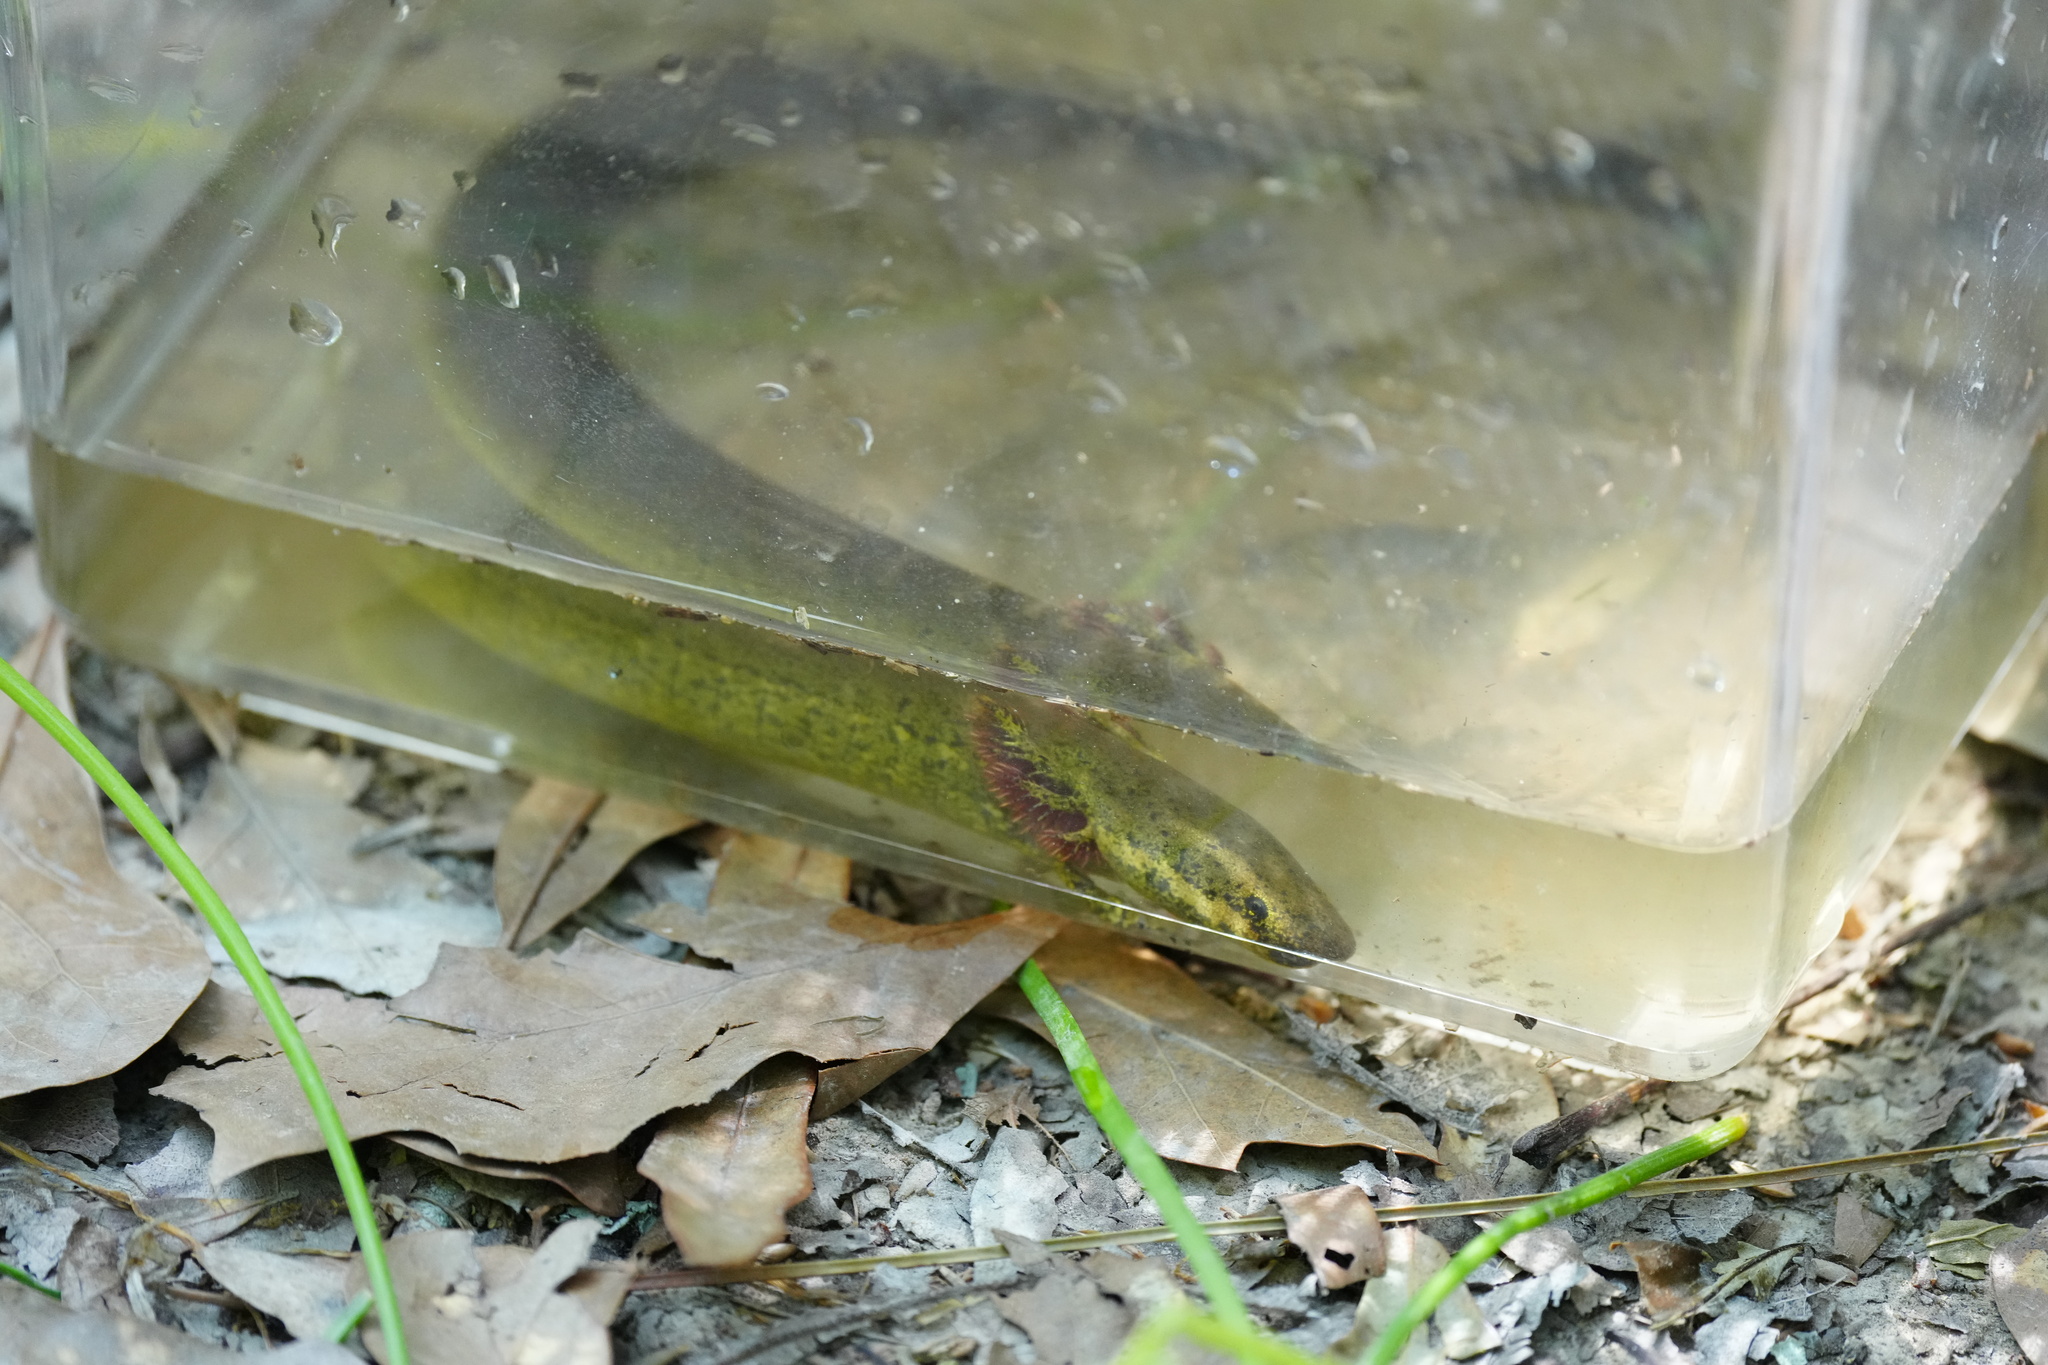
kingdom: Animalia
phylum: Chordata
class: Amphibia
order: Caudata
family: Sirenidae
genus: Siren
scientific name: Siren intermedia
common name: Lesser siren
